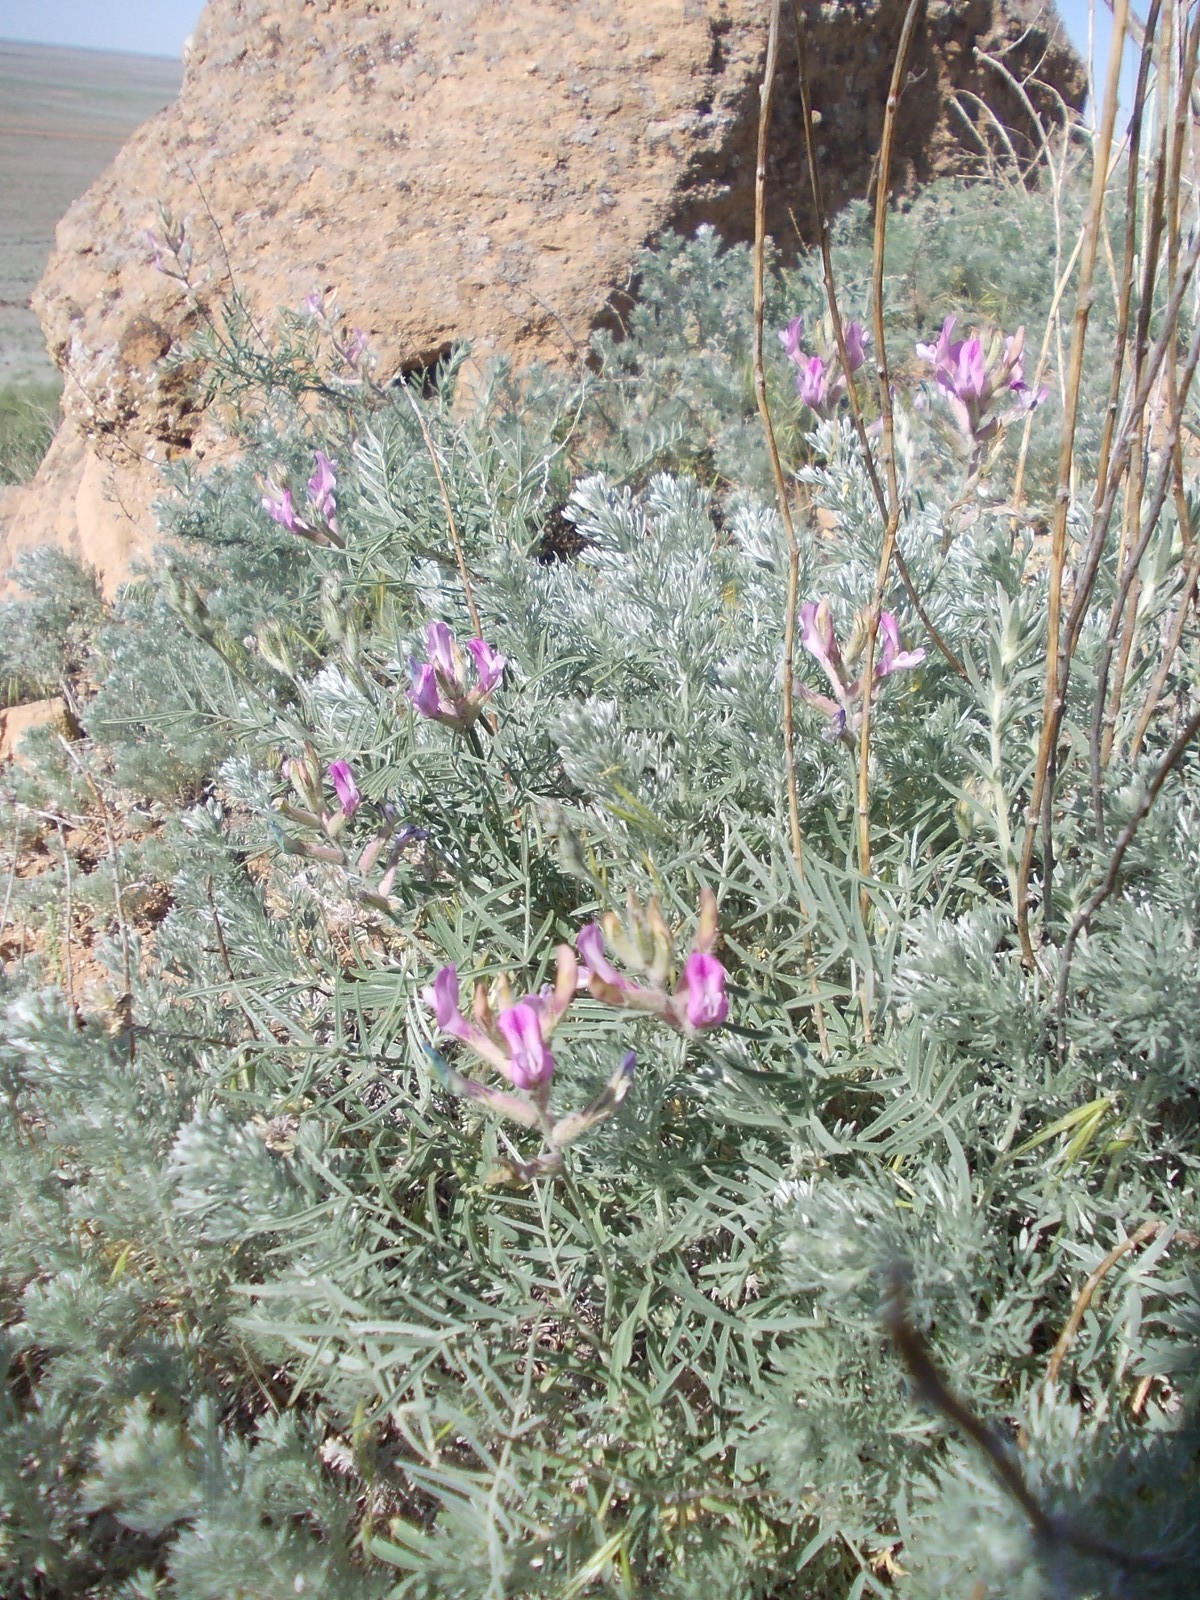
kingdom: Plantae
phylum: Tracheophyta
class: Magnoliopsida
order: Fabales
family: Fabaceae
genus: Astragalus
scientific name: Astragalus brachylobus
